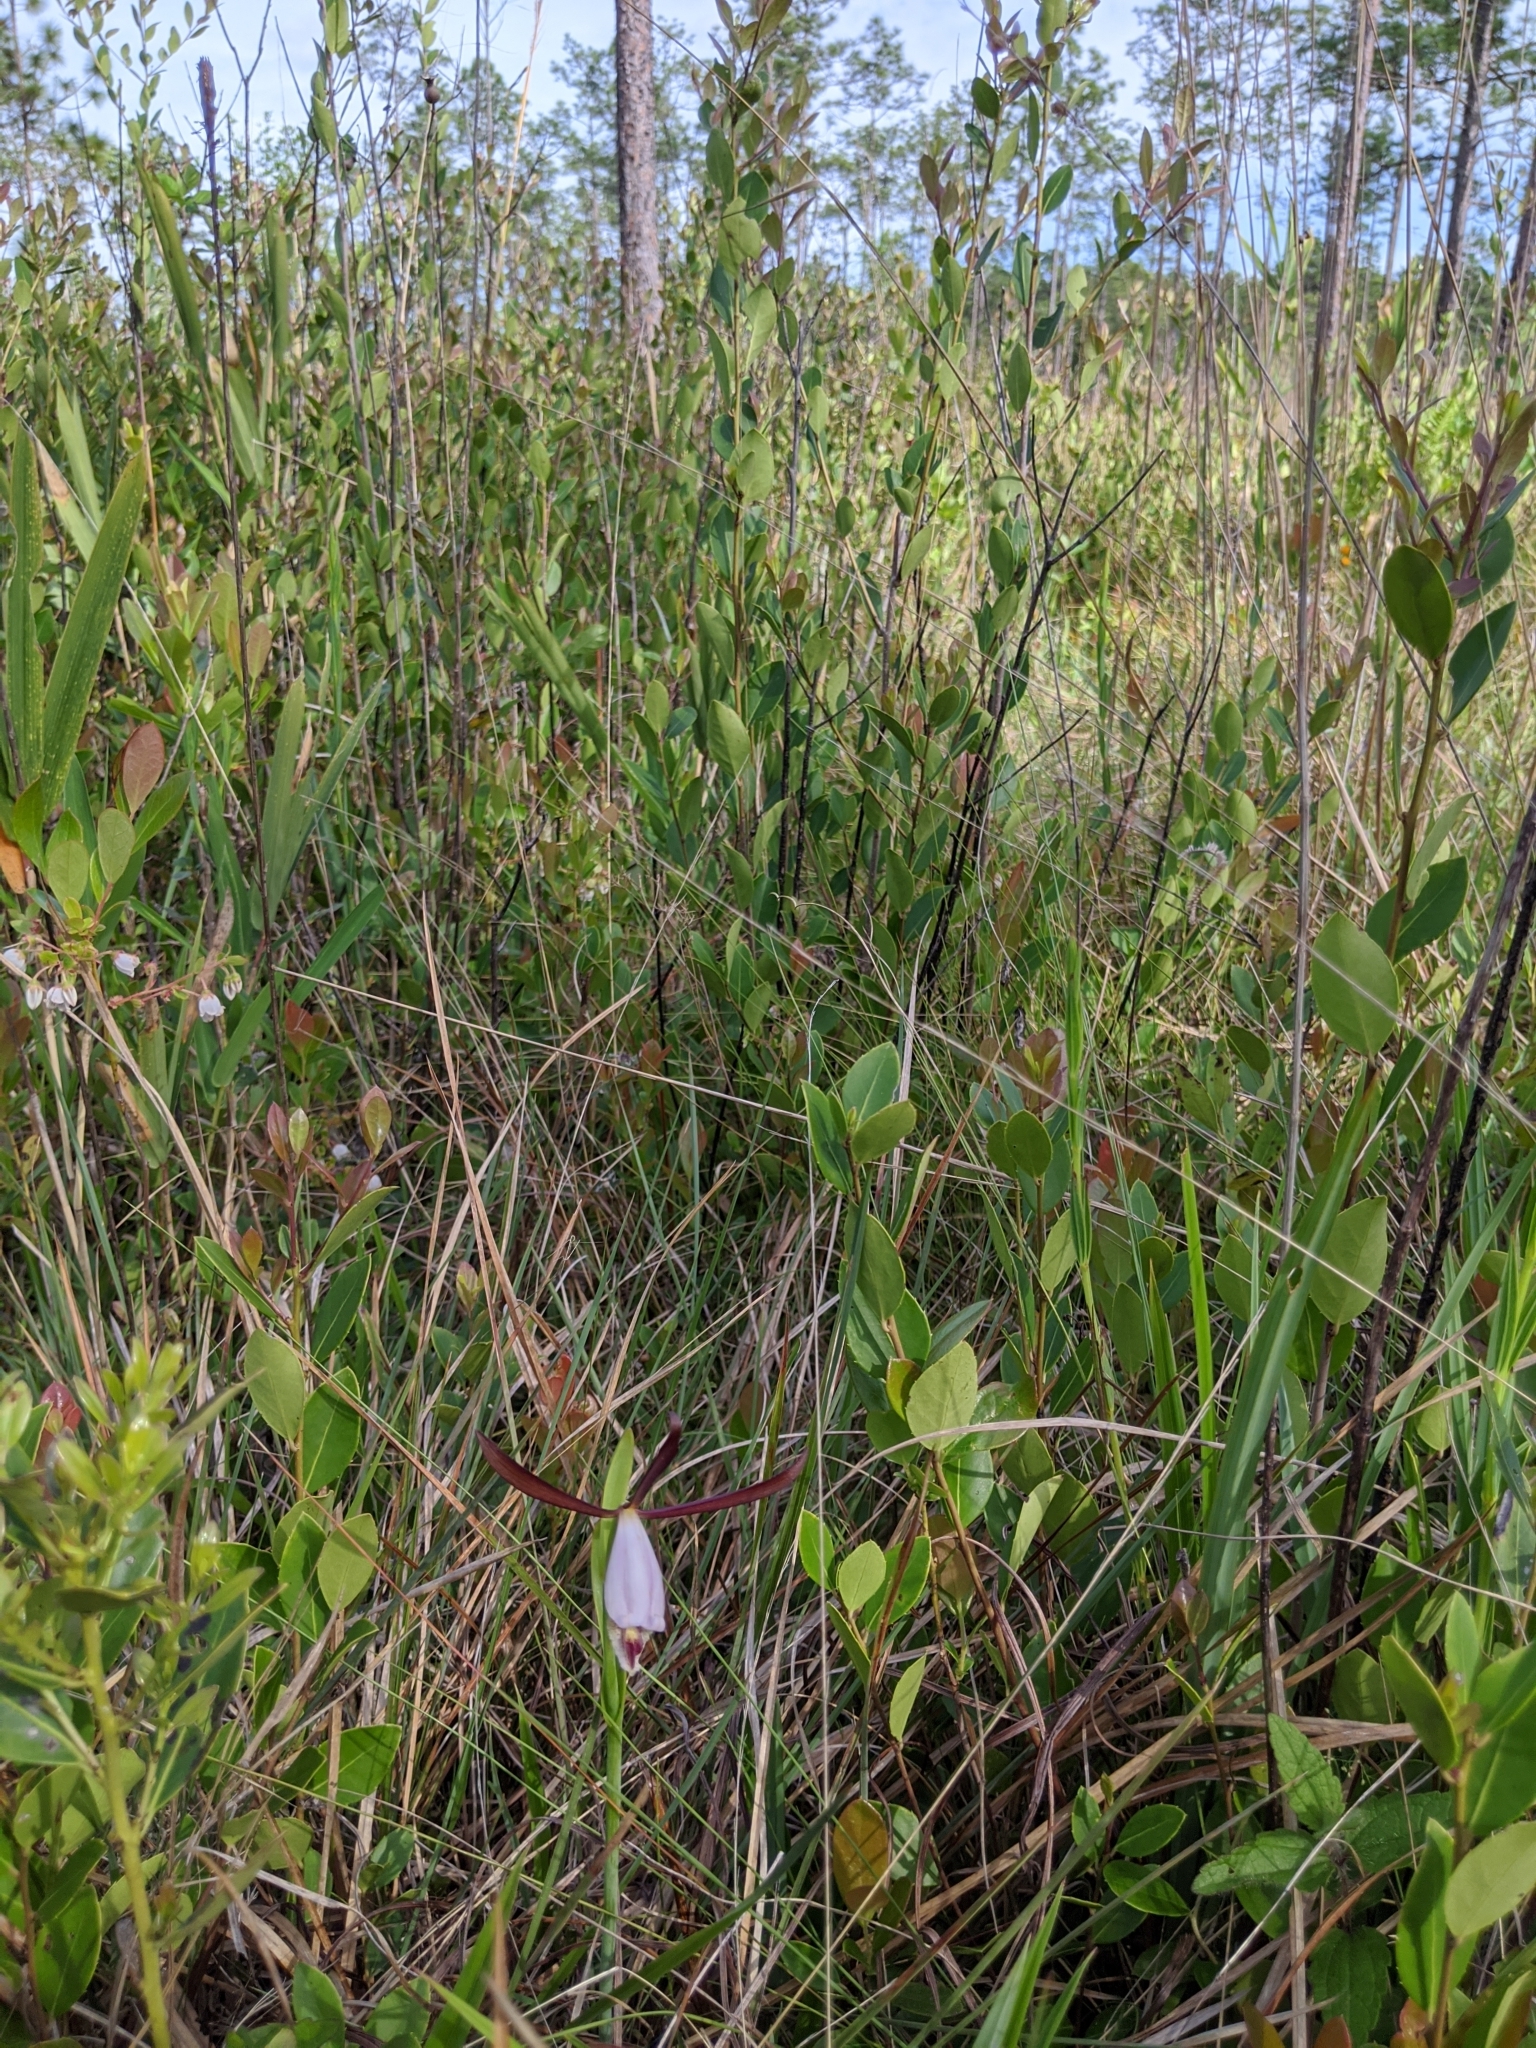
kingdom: Plantae
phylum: Tracheophyta
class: Liliopsida
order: Asparagales
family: Orchidaceae
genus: Cleistesiopsis
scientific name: Cleistesiopsis oricamporum
